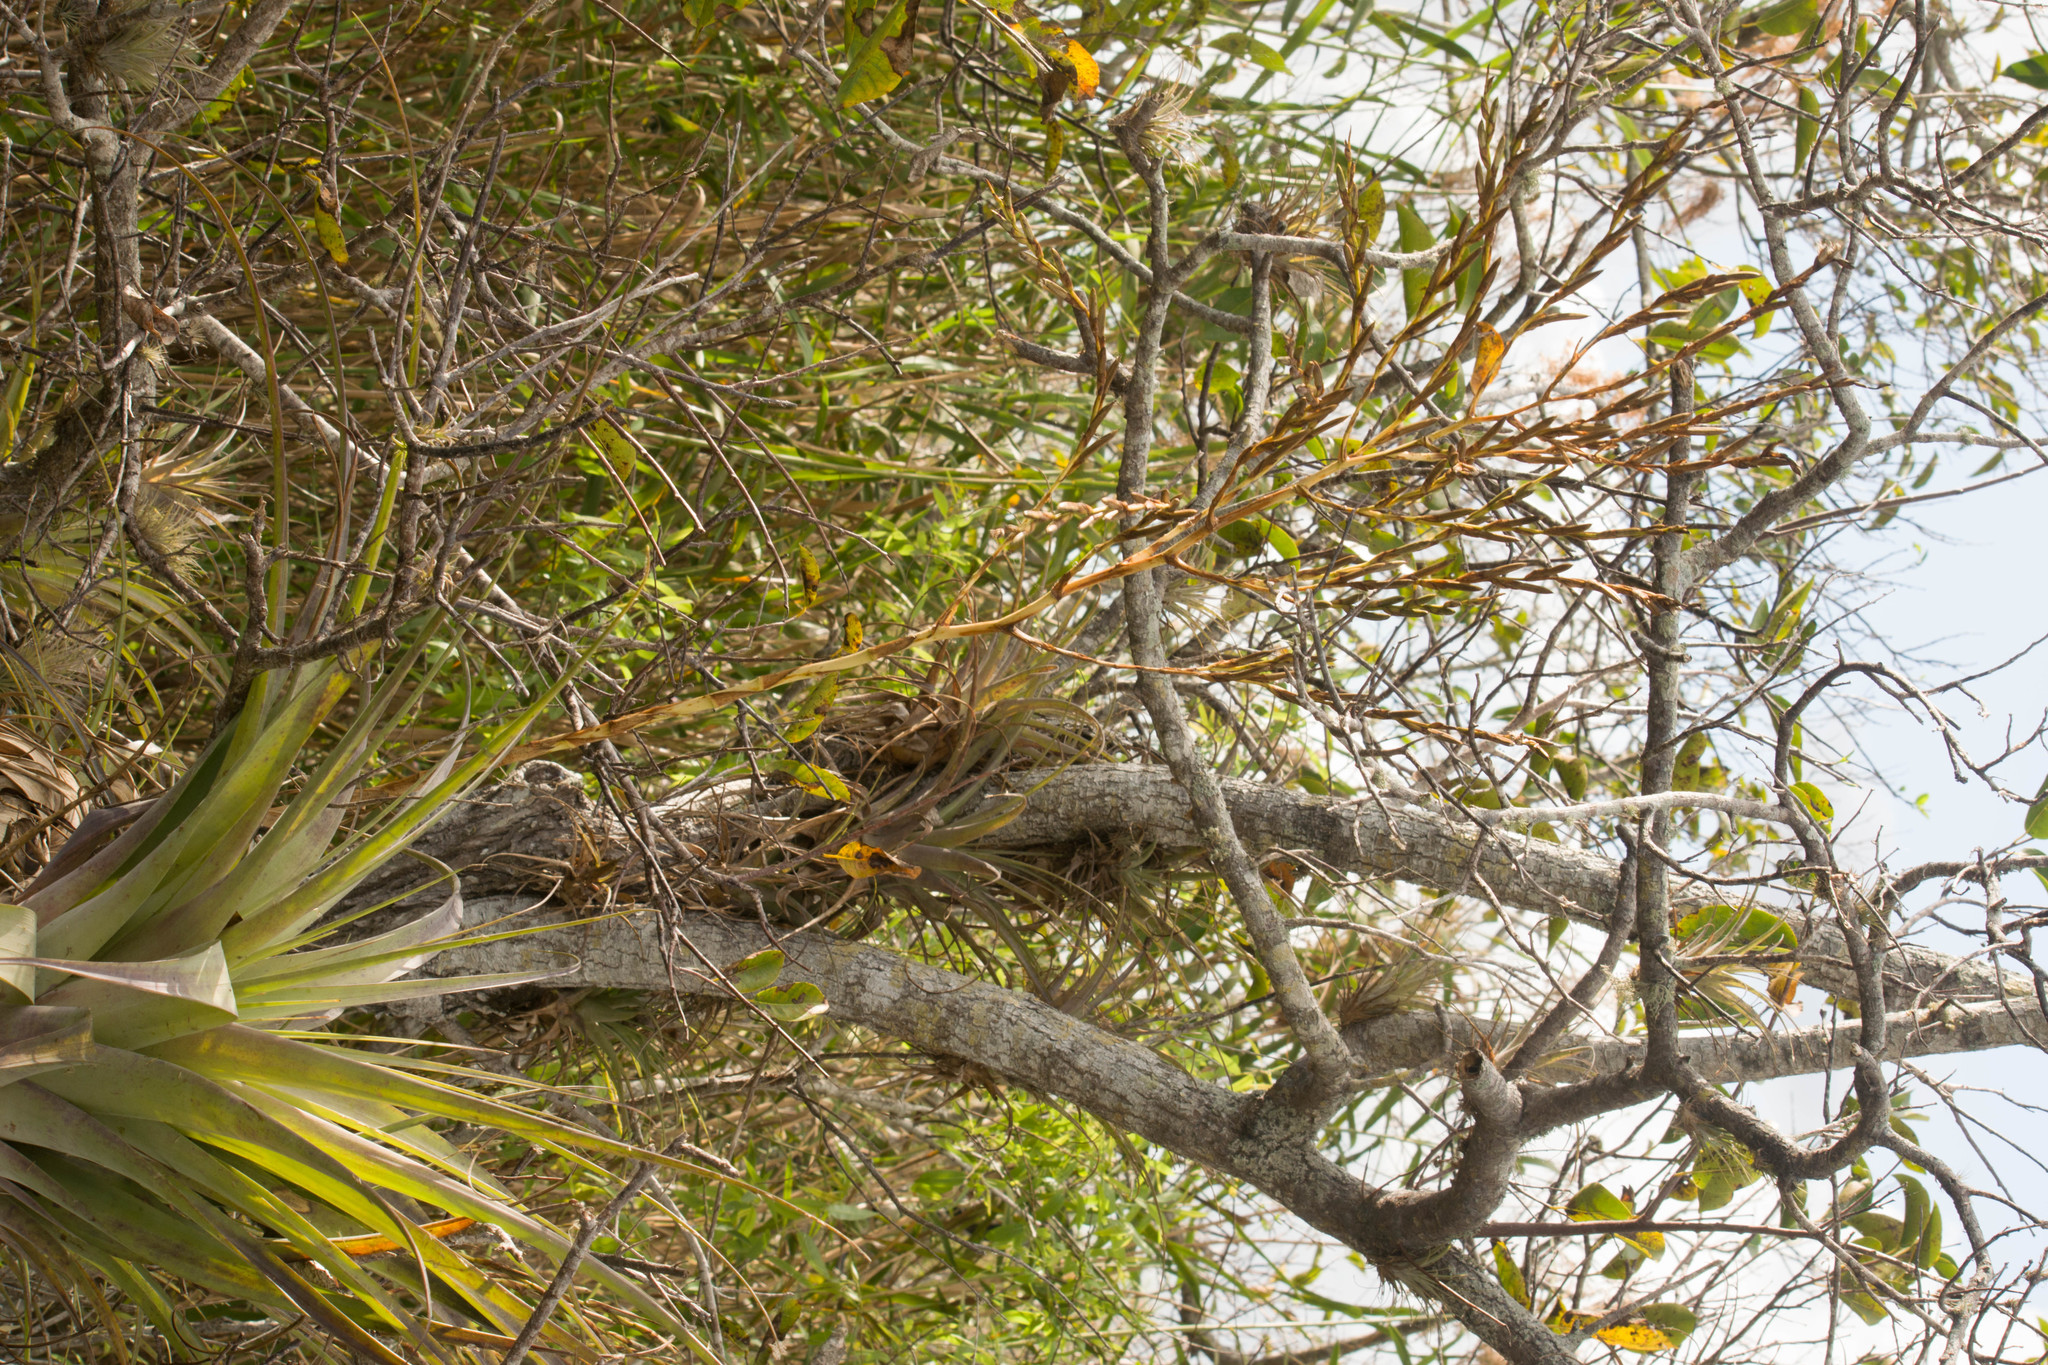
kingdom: Plantae
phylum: Tracheophyta
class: Liliopsida
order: Poales
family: Bromeliaceae
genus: Tillandsia
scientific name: Tillandsia utriculata
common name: Wild pine
